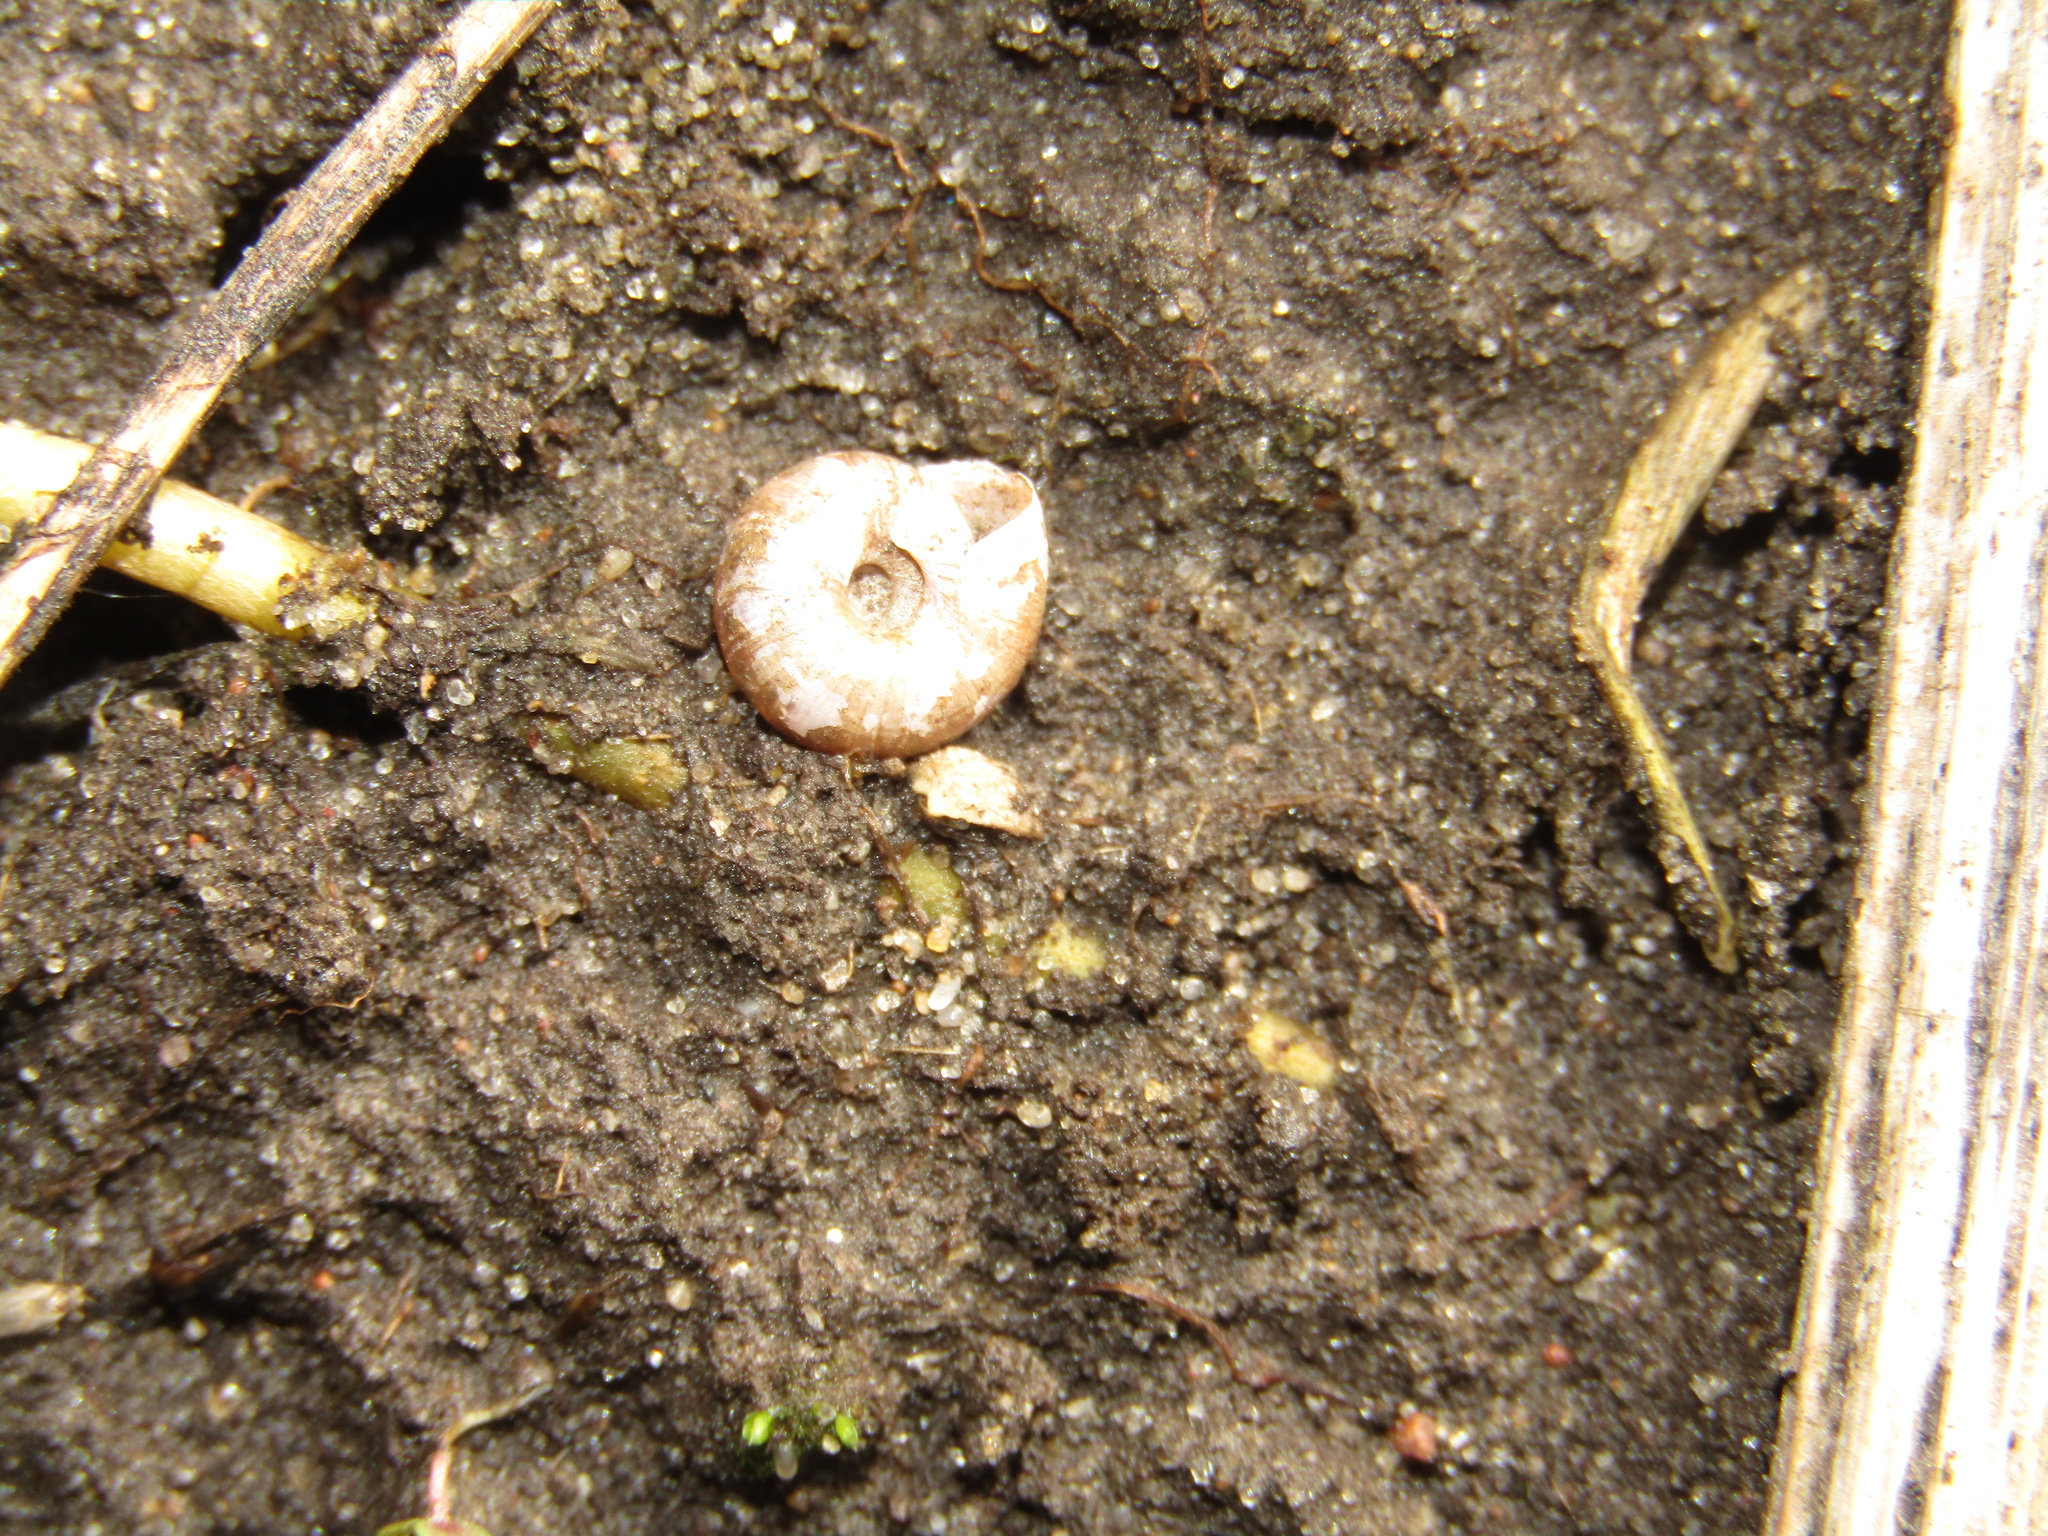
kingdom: Animalia
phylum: Mollusca
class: Gastropoda
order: Stylommatophora
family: Hygromiidae
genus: Trochulus
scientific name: Trochulus hispidus
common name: Hairy snail
